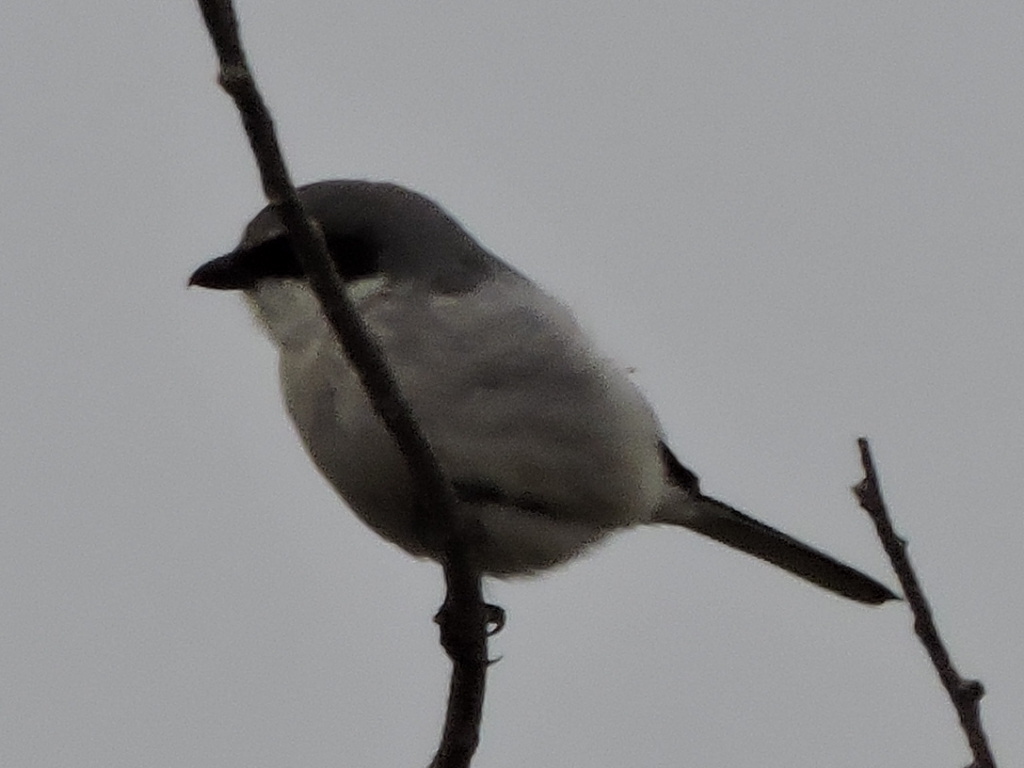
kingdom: Animalia
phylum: Chordata
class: Aves
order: Passeriformes
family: Laniidae
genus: Lanius
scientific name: Lanius ludovicianus
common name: Loggerhead shrike
